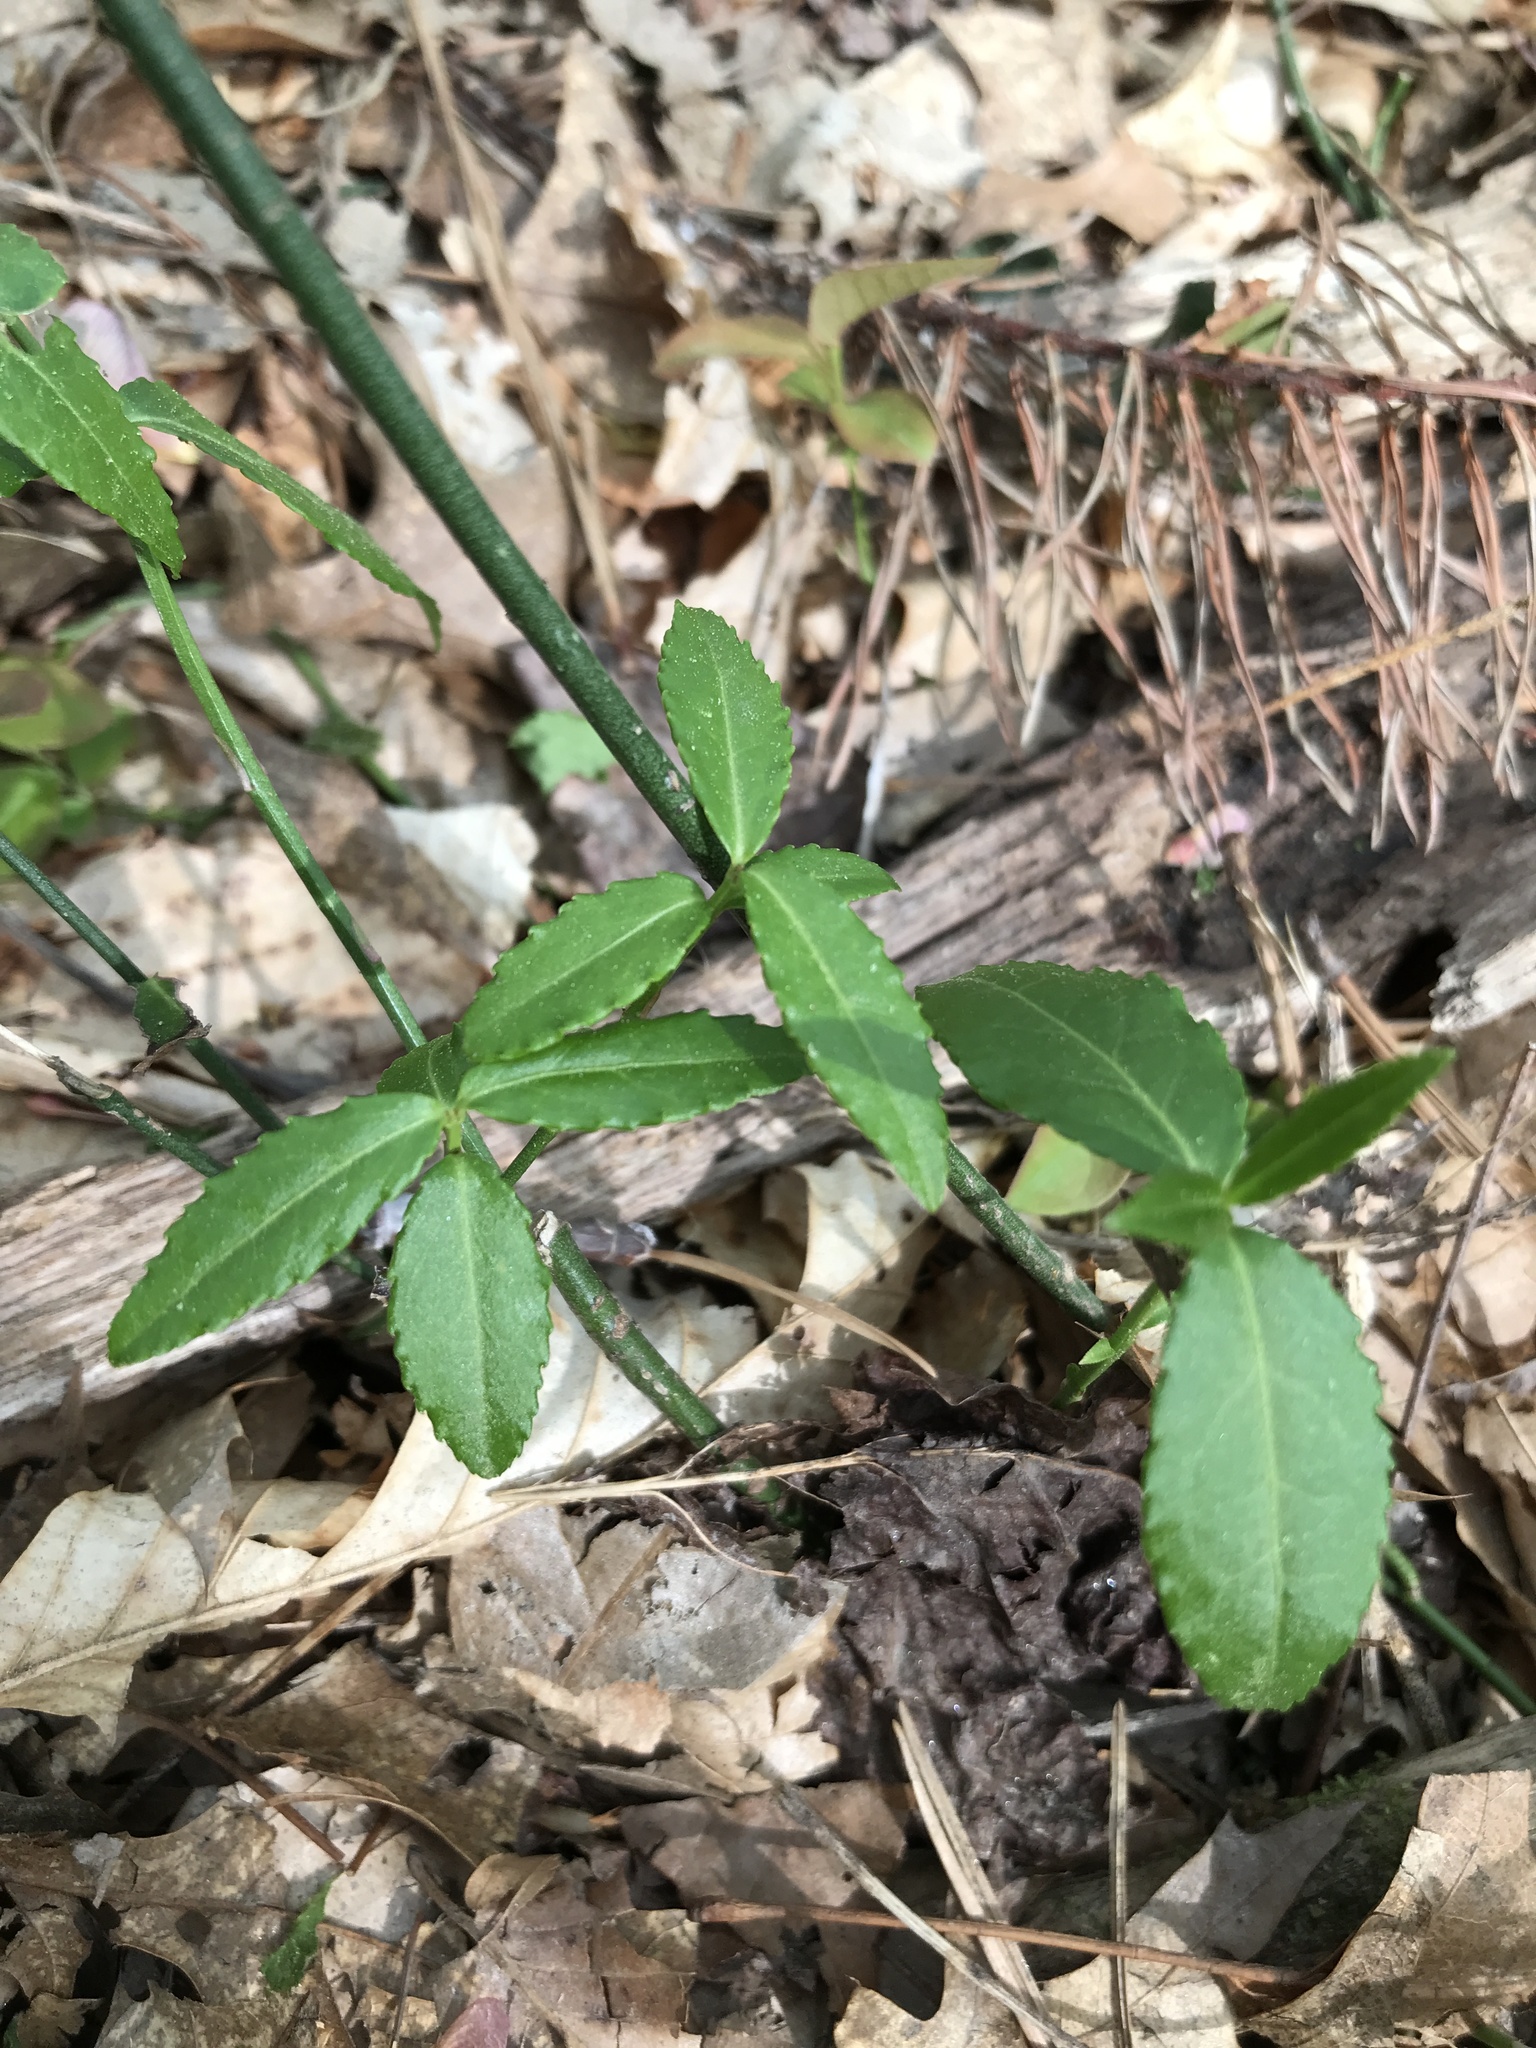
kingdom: Plantae
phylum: Tracheophyta
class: Magnoliopsida
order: Celastrales
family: Celastraceae
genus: Euonymus
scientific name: Euonymus americanus
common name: Bursting-heart
